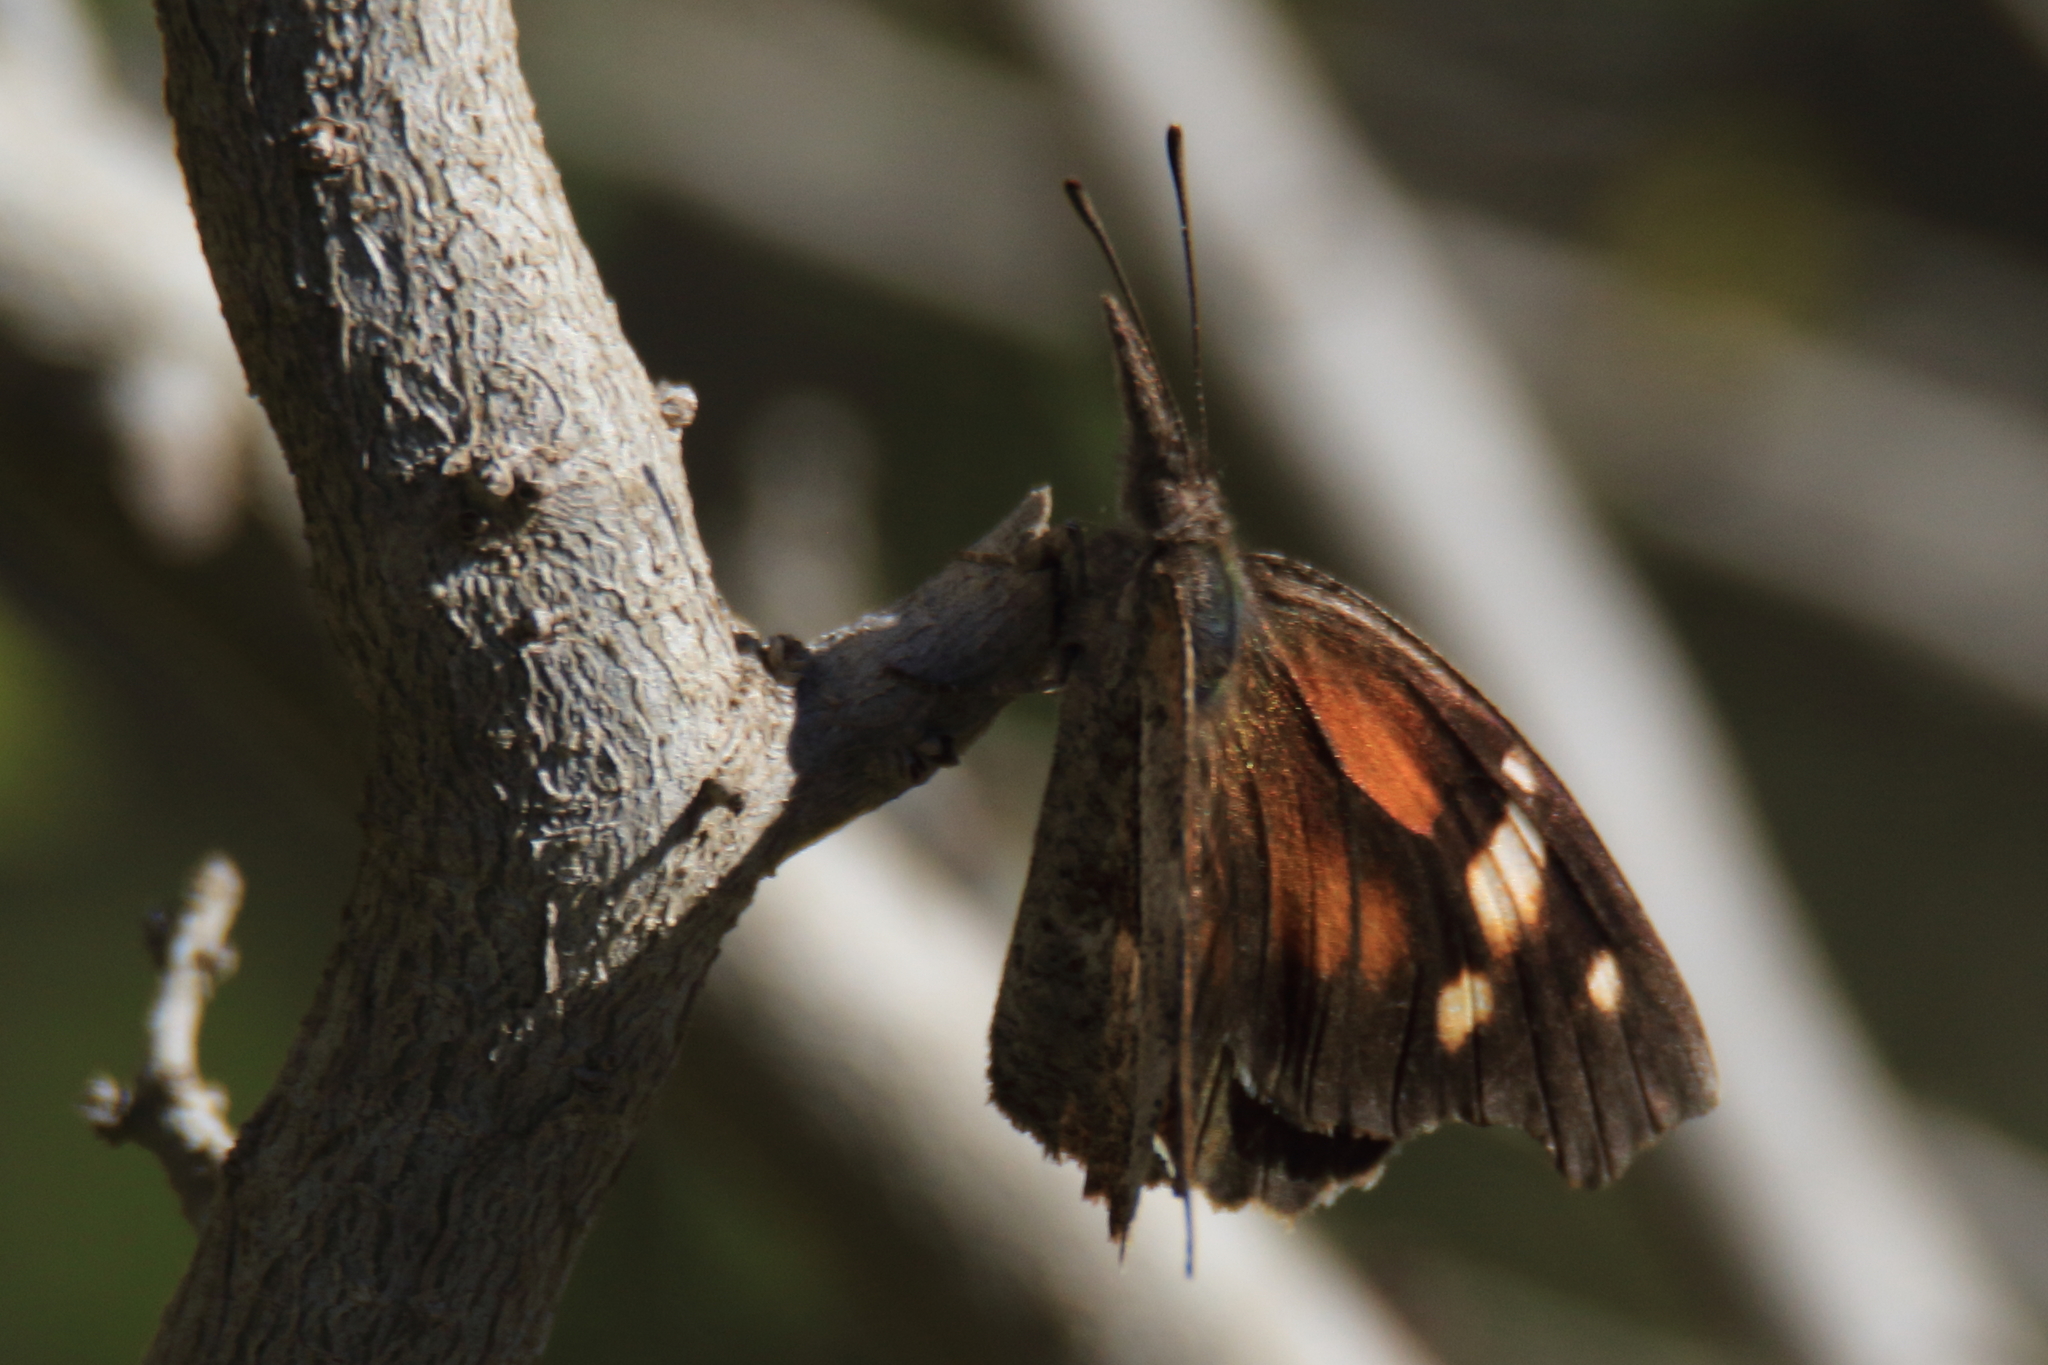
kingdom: Animalia
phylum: Arthropoda
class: Insecta
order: Lepidoptera
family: Nymphalidae
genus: Libytheana
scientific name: Libytheana carinenta
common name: American snout
